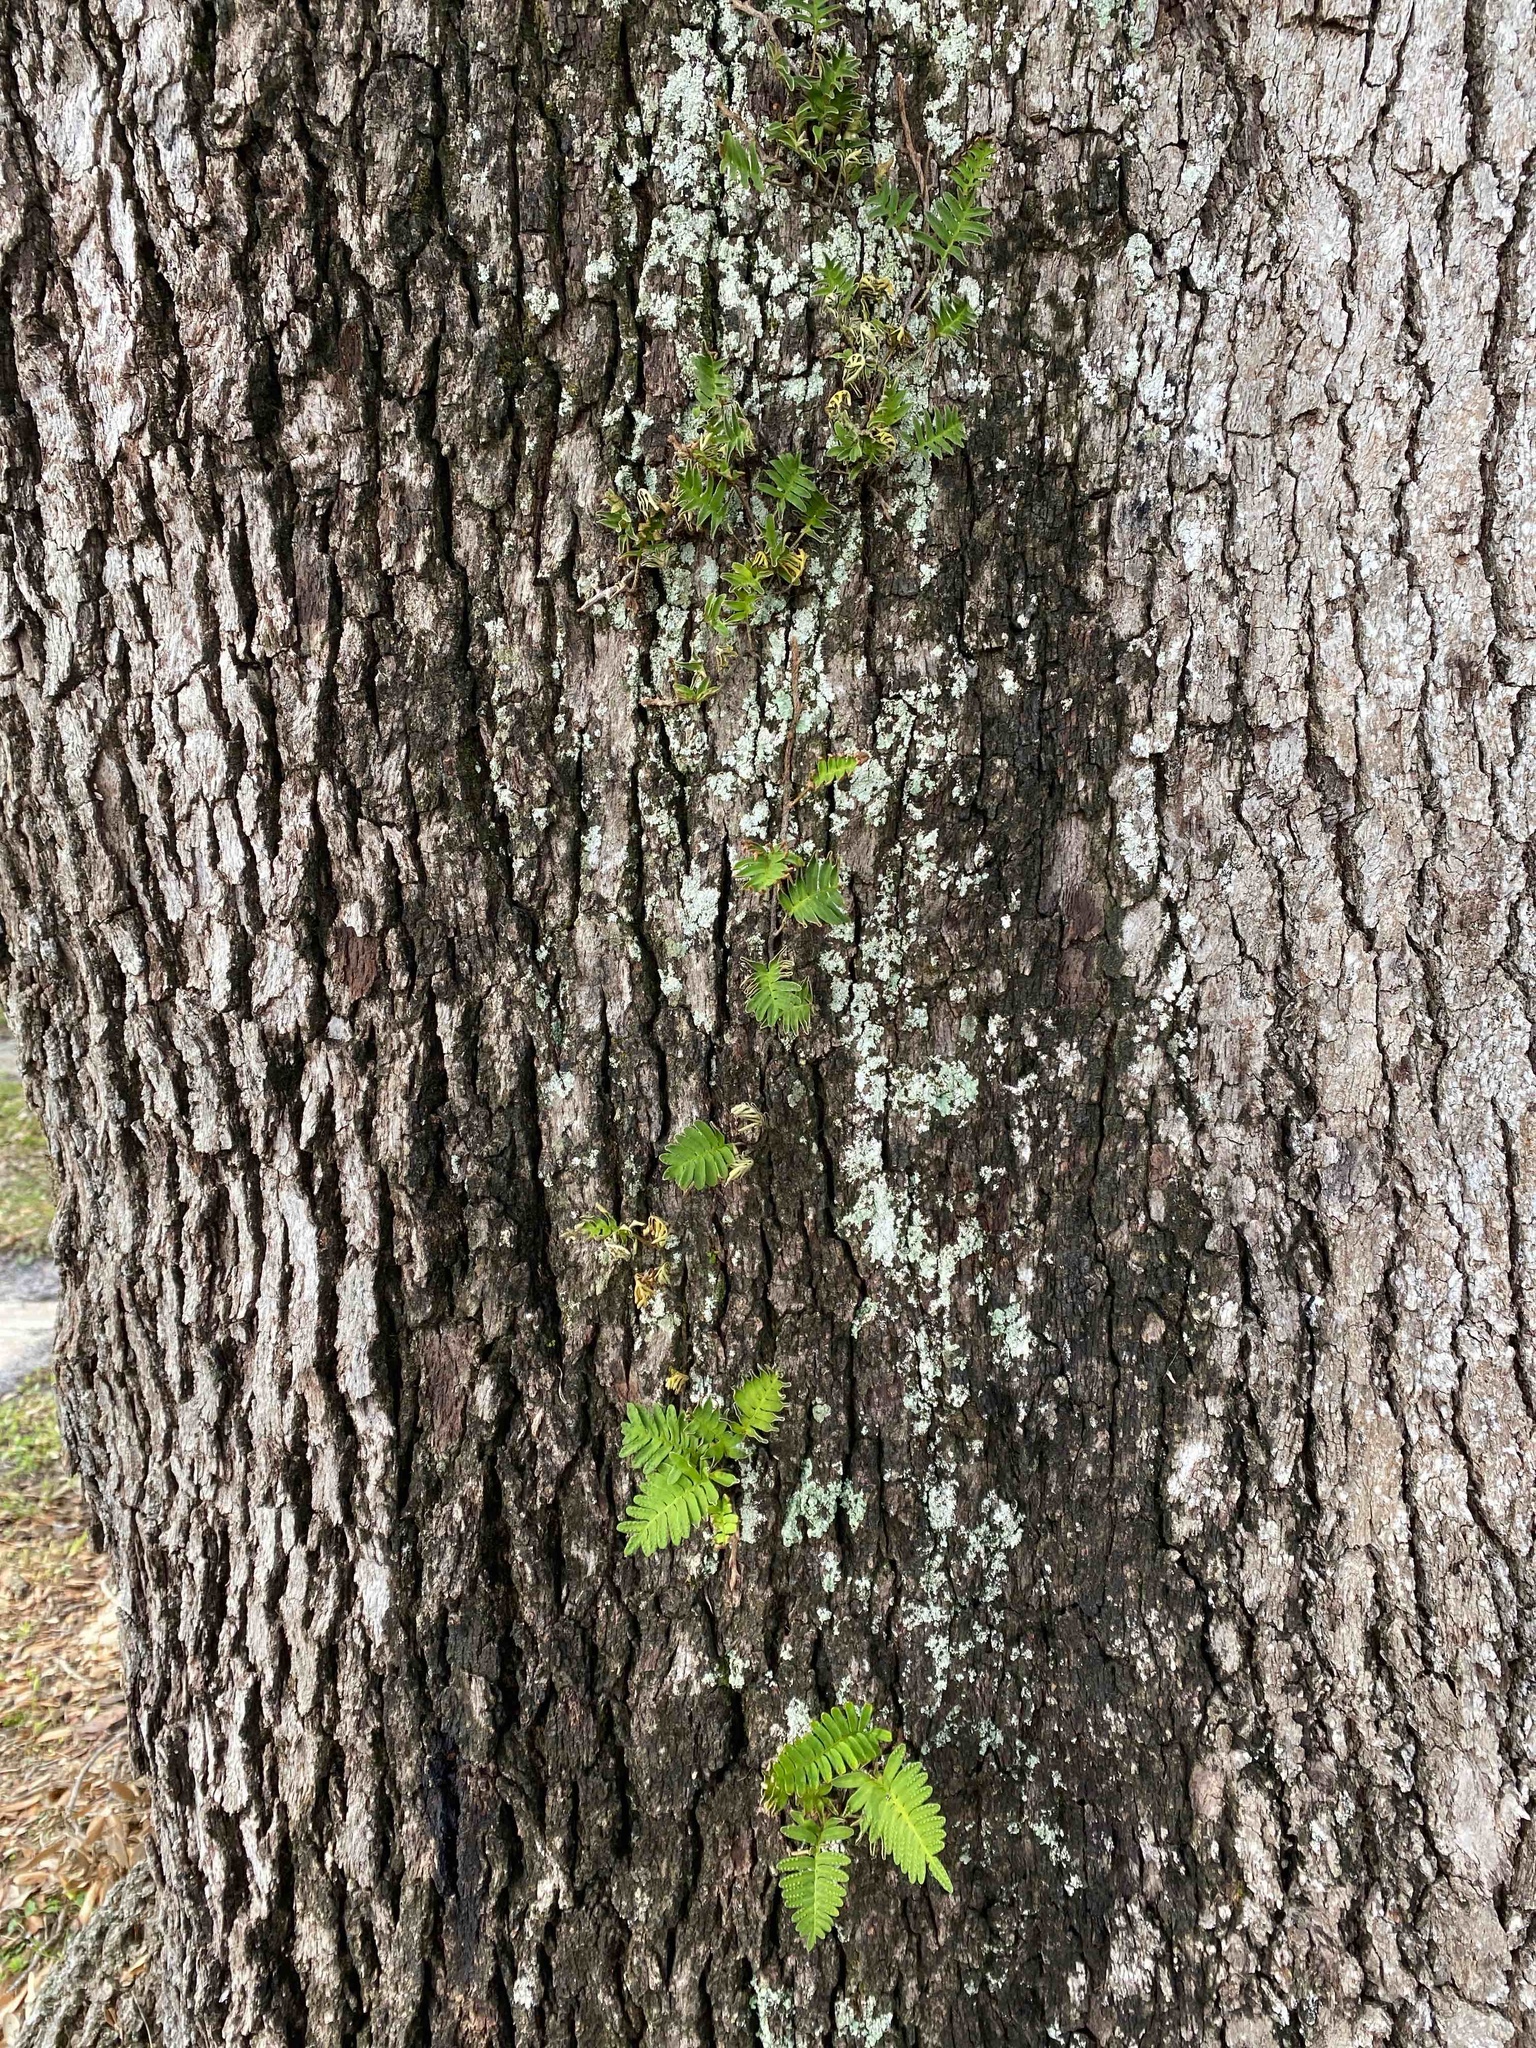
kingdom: Plantae
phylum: Tracheophyta
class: Polypodiopsida
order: Polypodiales
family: Polypodiaceae
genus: Pleopeltis
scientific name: Pleopeltis michauxiana
